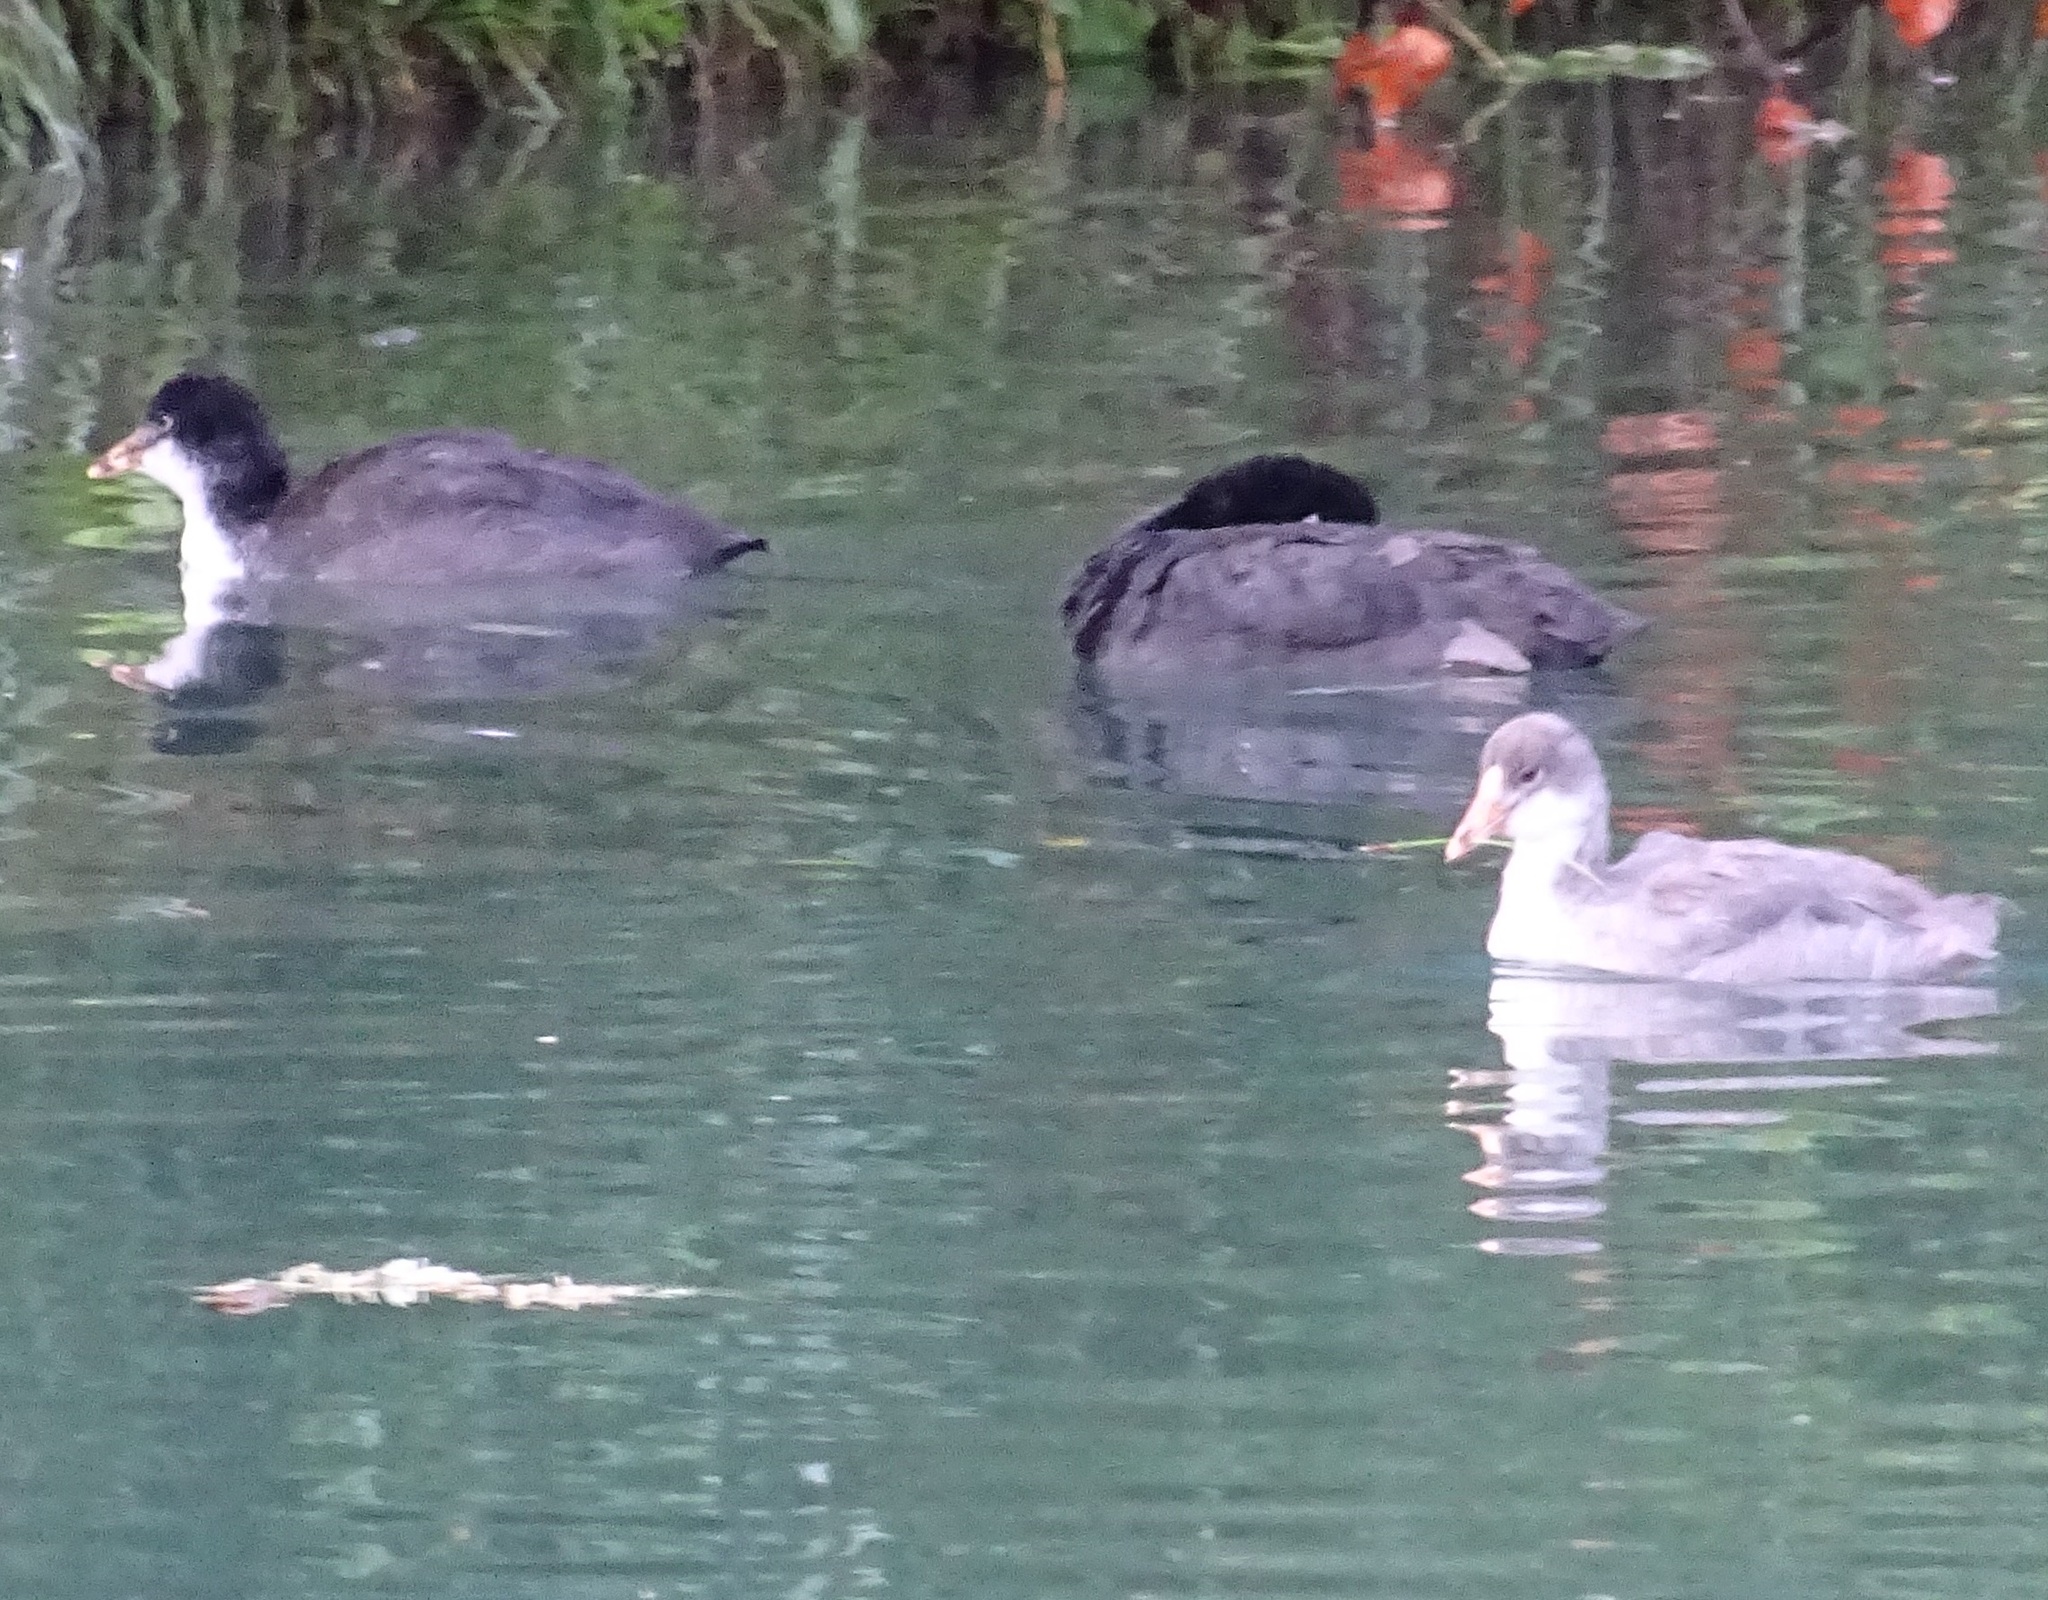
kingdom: Animalia
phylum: Chordata
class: Aves
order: Gruiformes
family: Rallidae
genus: Fulica
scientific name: Fulica atra
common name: Eurasian coot
